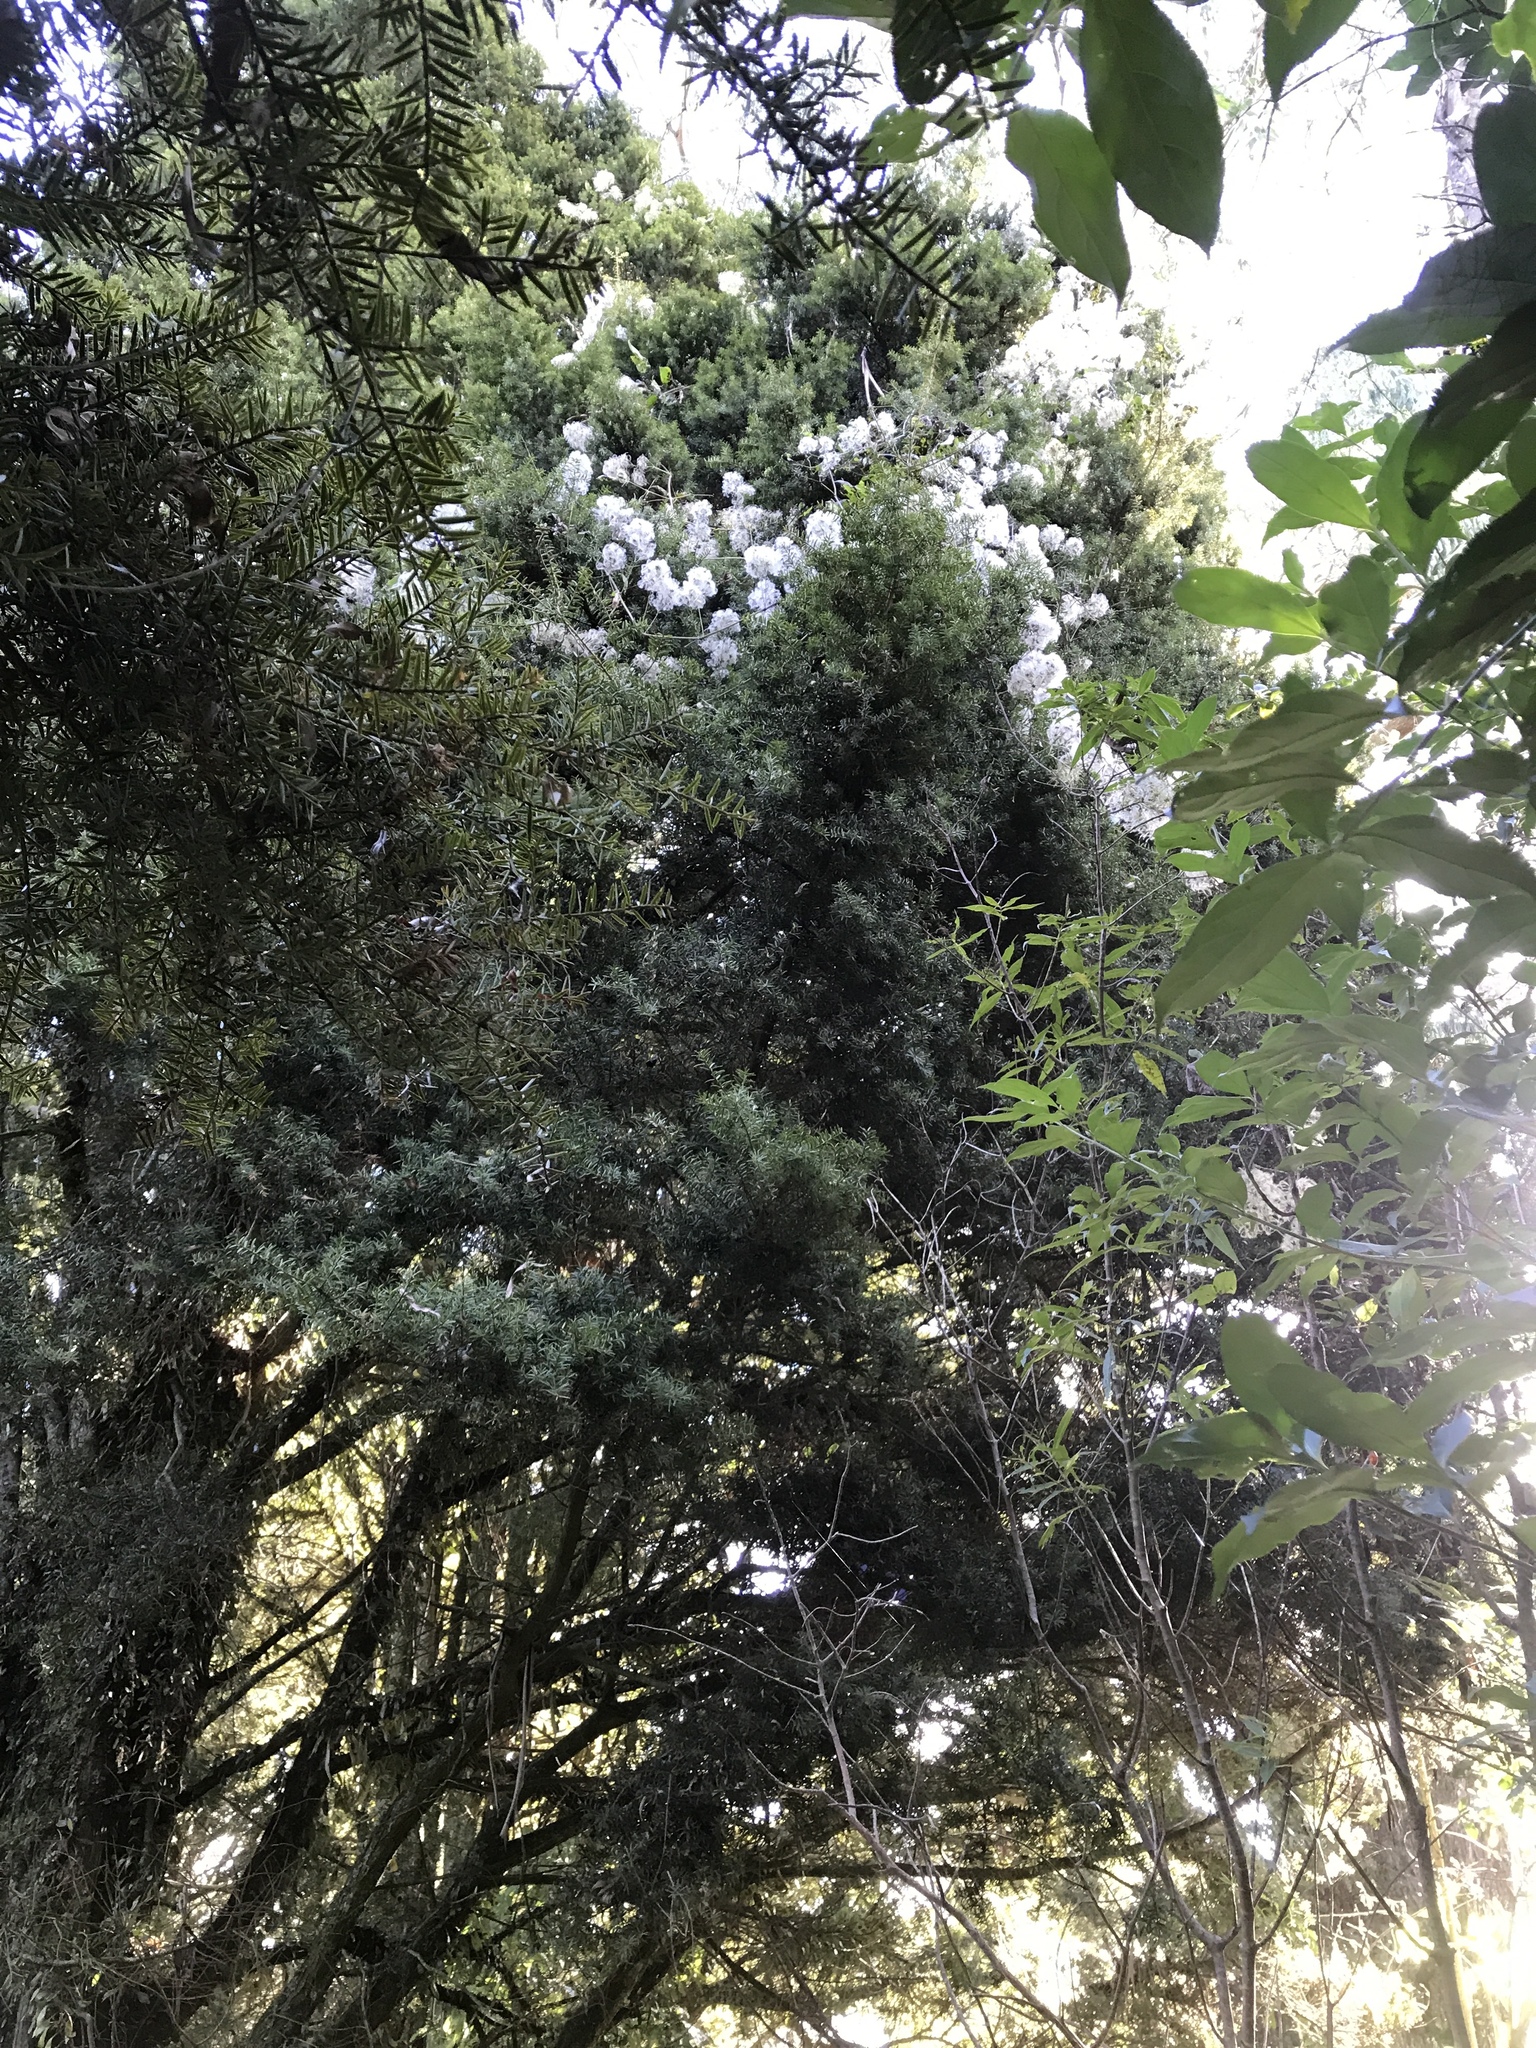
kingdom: Plantae
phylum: Tracheophyta
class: Magnoliopsida
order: Ranunculales
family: Ranunculaceae
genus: Clematis
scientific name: Clematis vitalba
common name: Evergreen clematis
